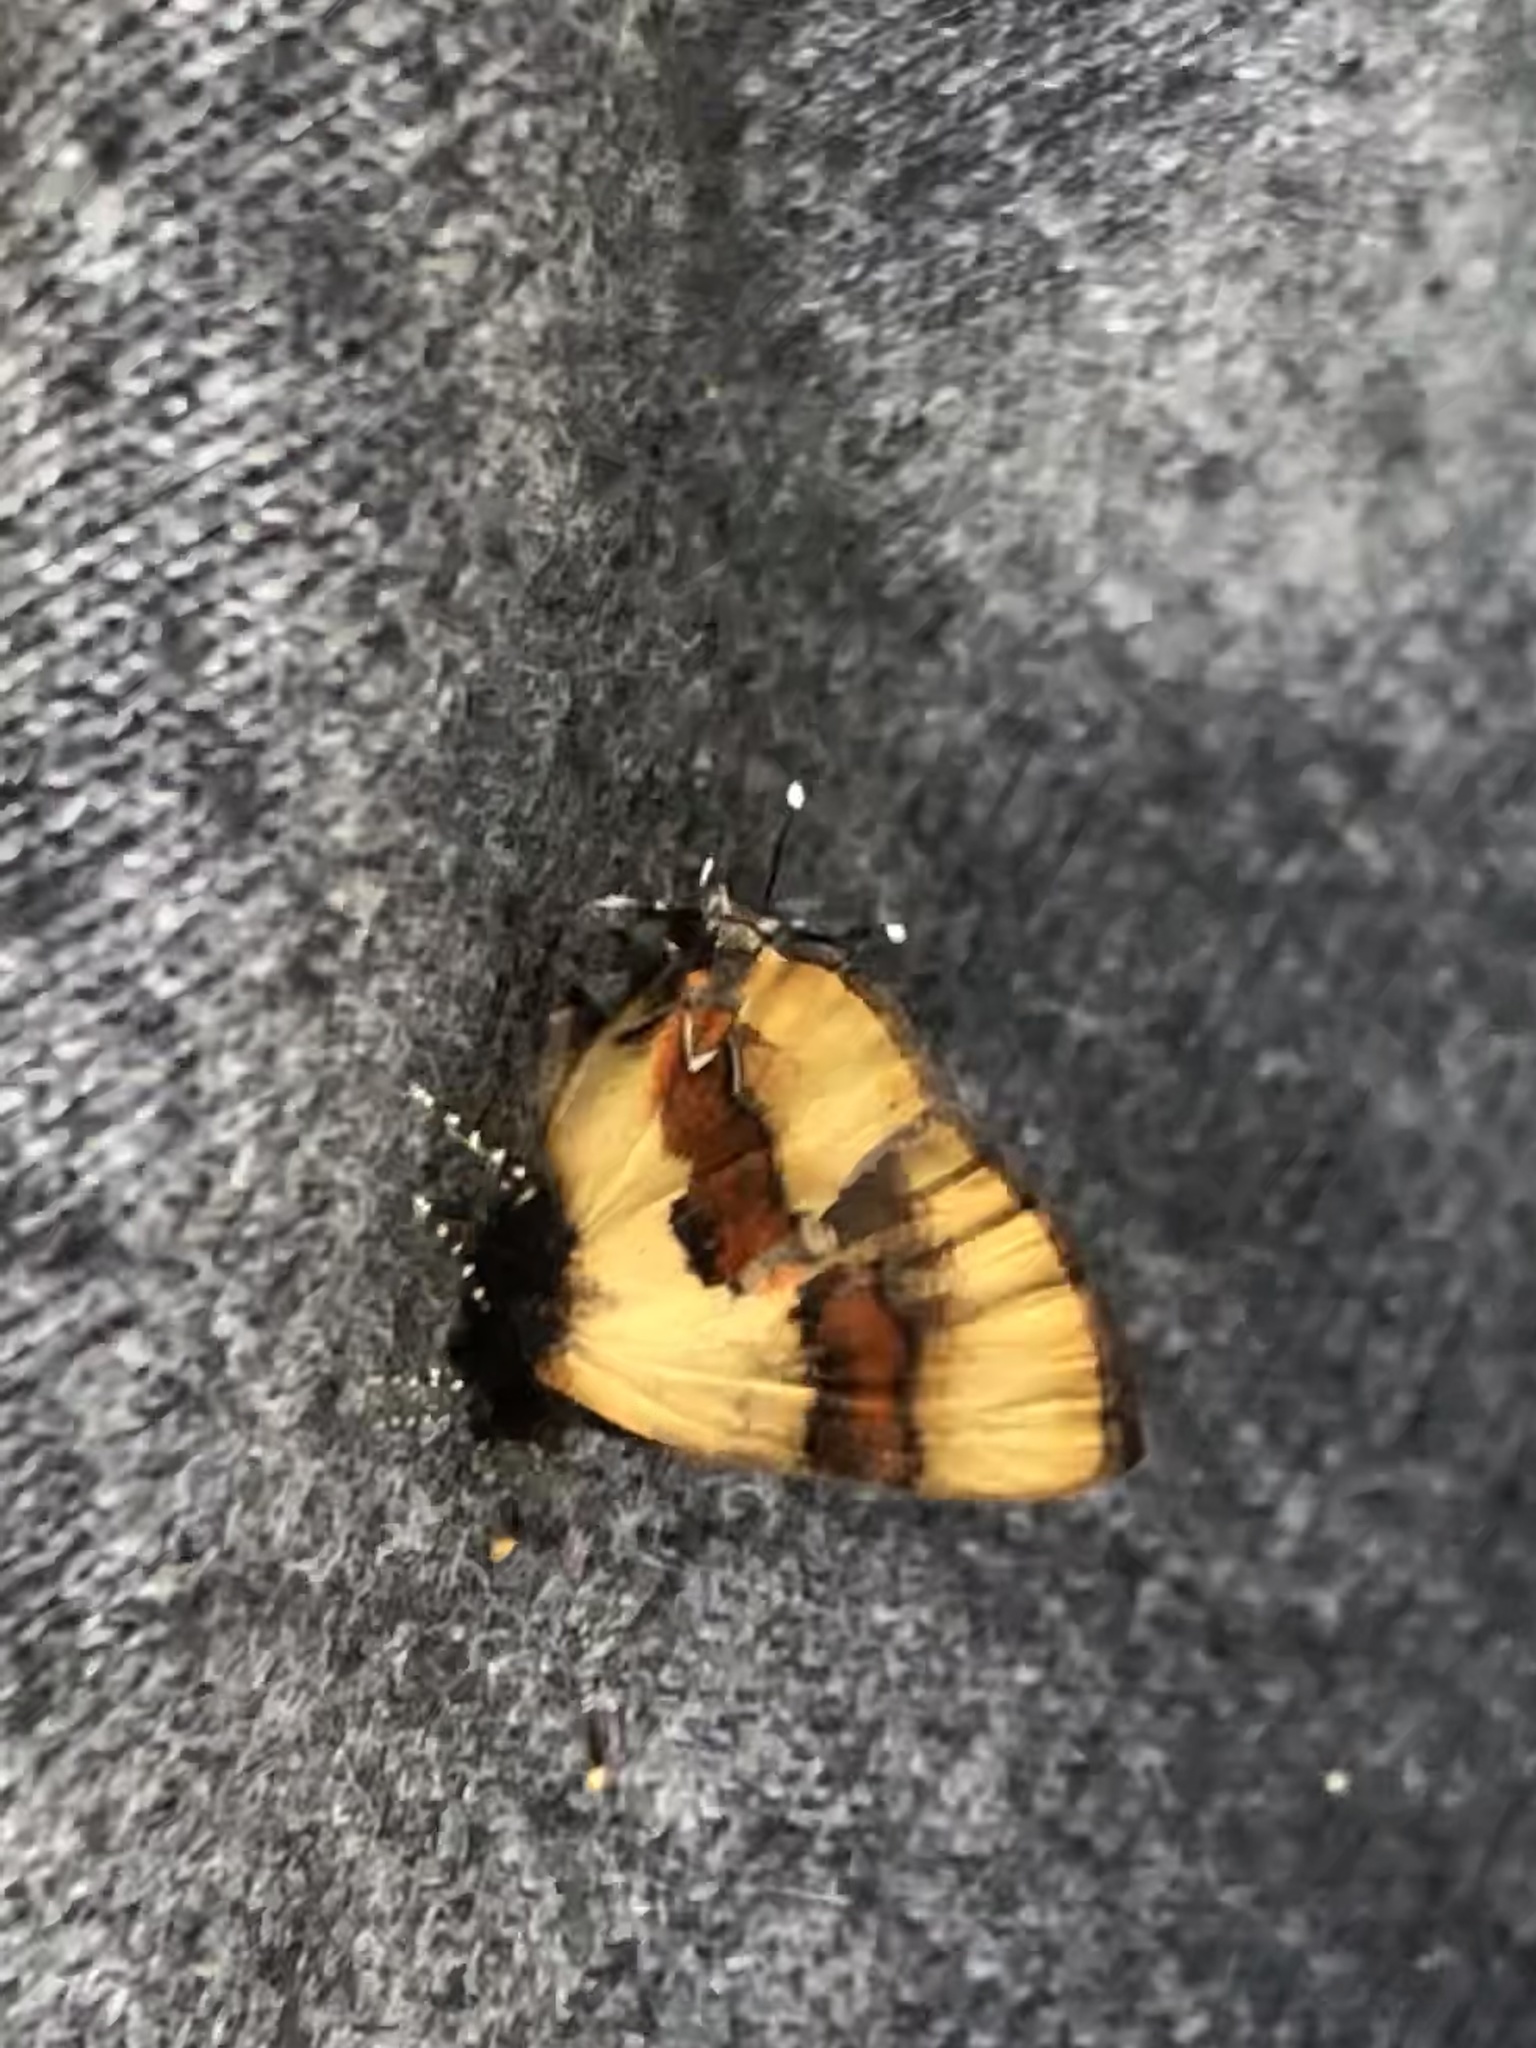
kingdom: Animalia
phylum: Arthropoda
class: Insecta
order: Lepidoptera
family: Lycaenidae
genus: Thecla
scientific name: Thecla buphonia
